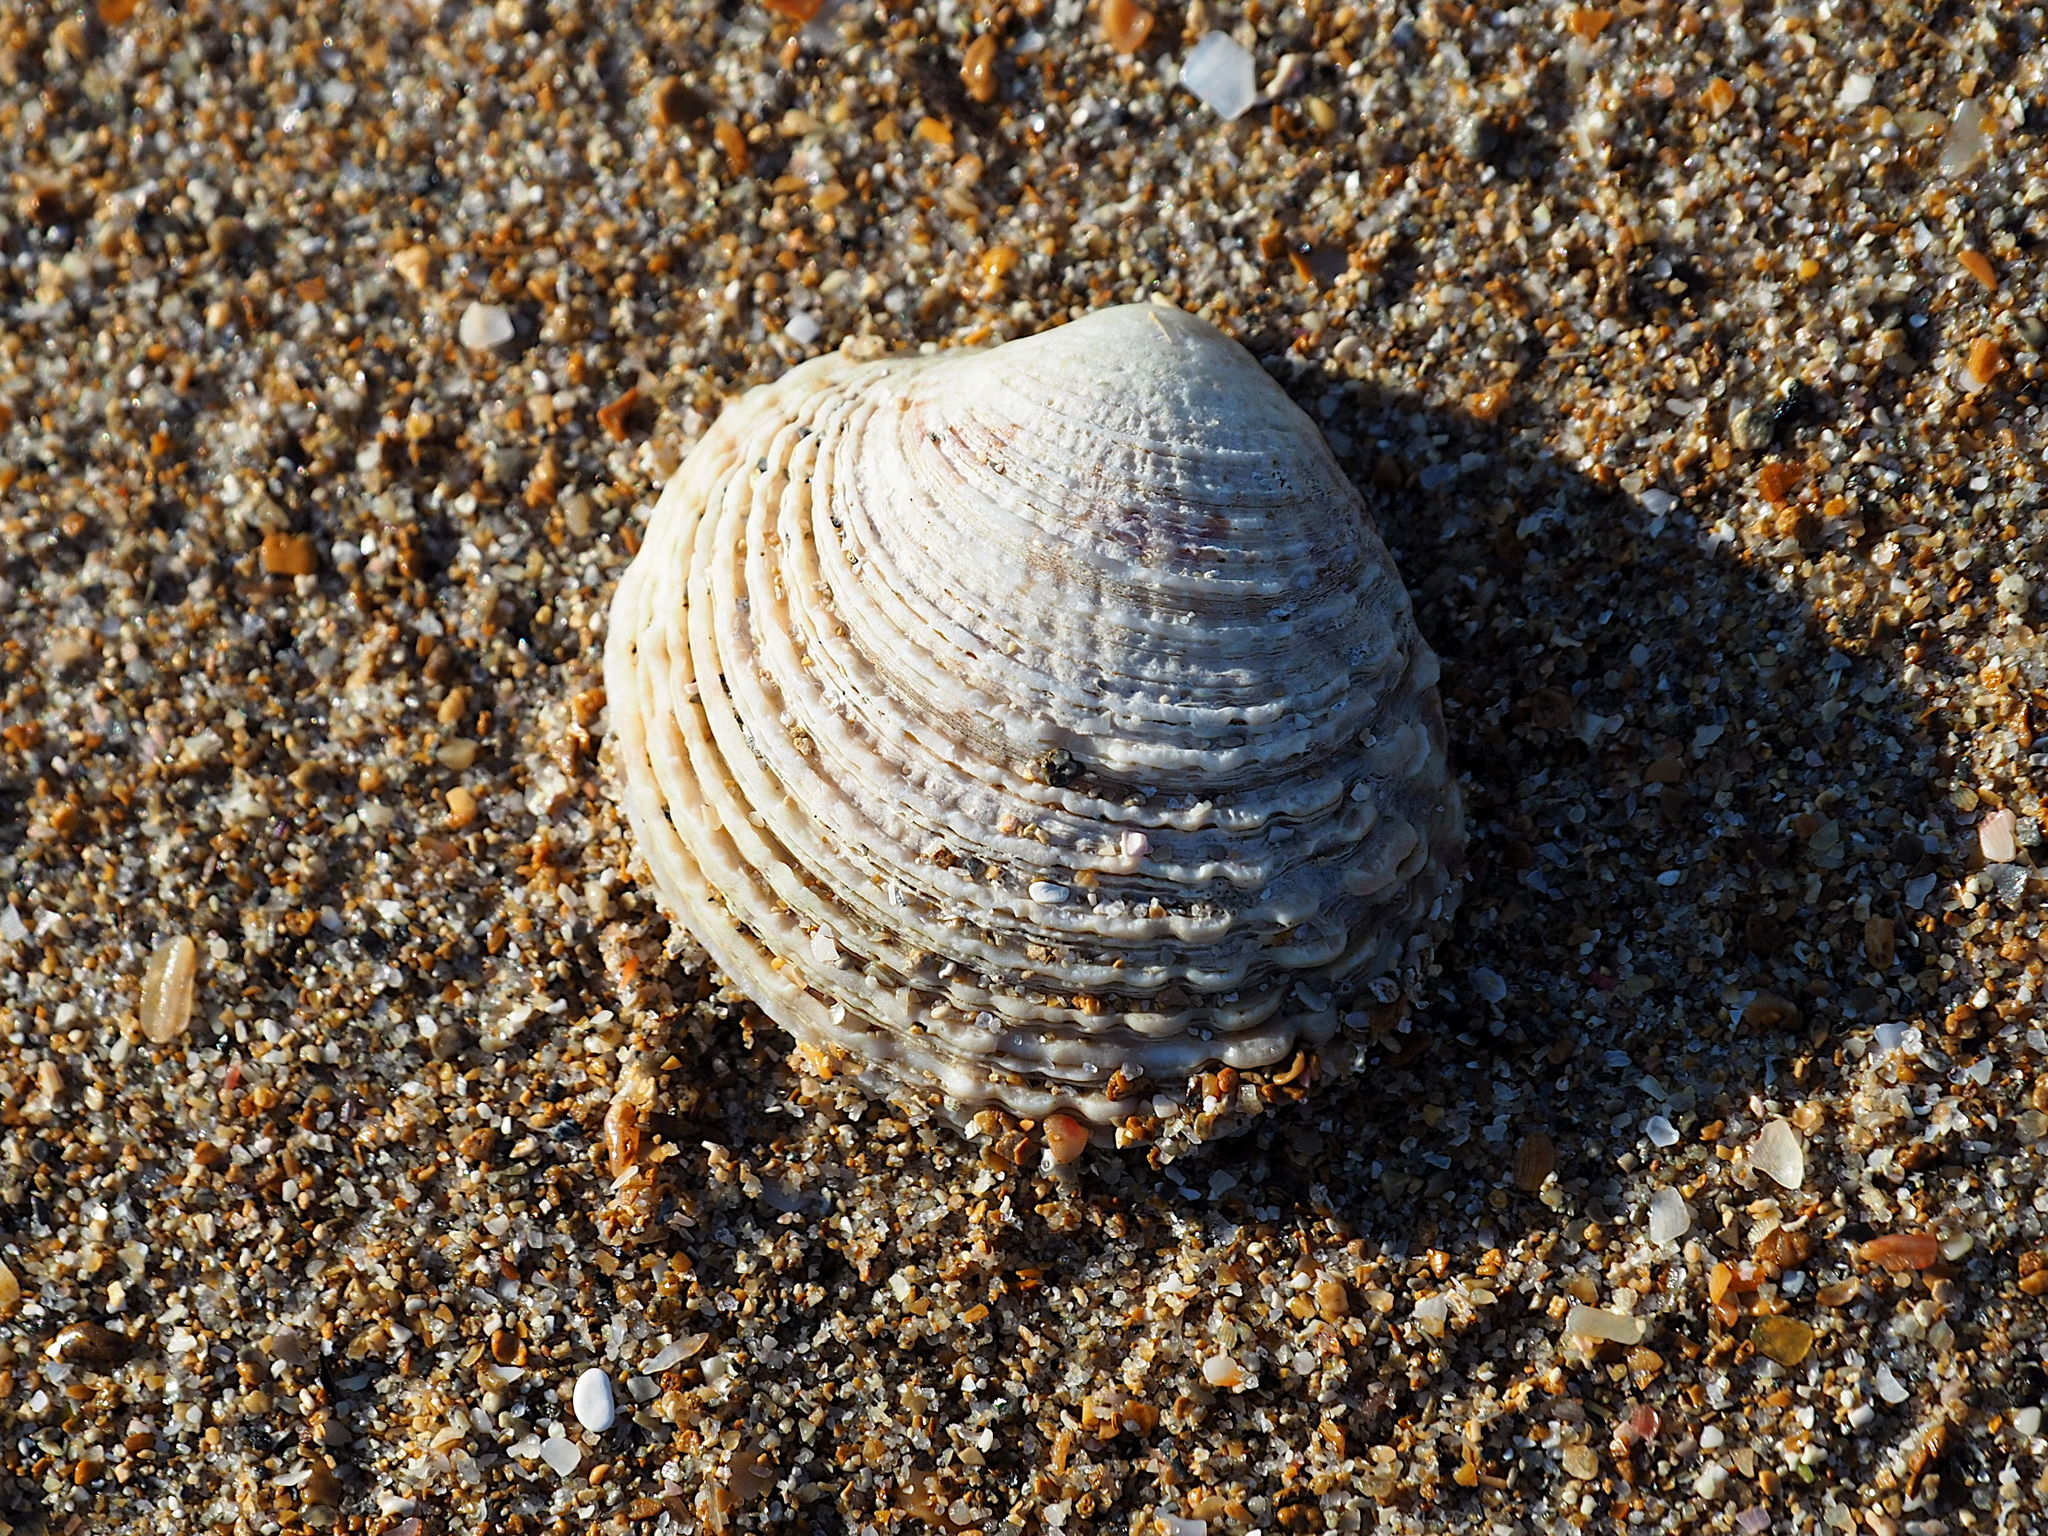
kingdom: Animalia
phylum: Mollusca
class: Bivalvia
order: Venerida
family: Veneridae
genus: Venus
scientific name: Venus verrucosa
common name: Warty venus
